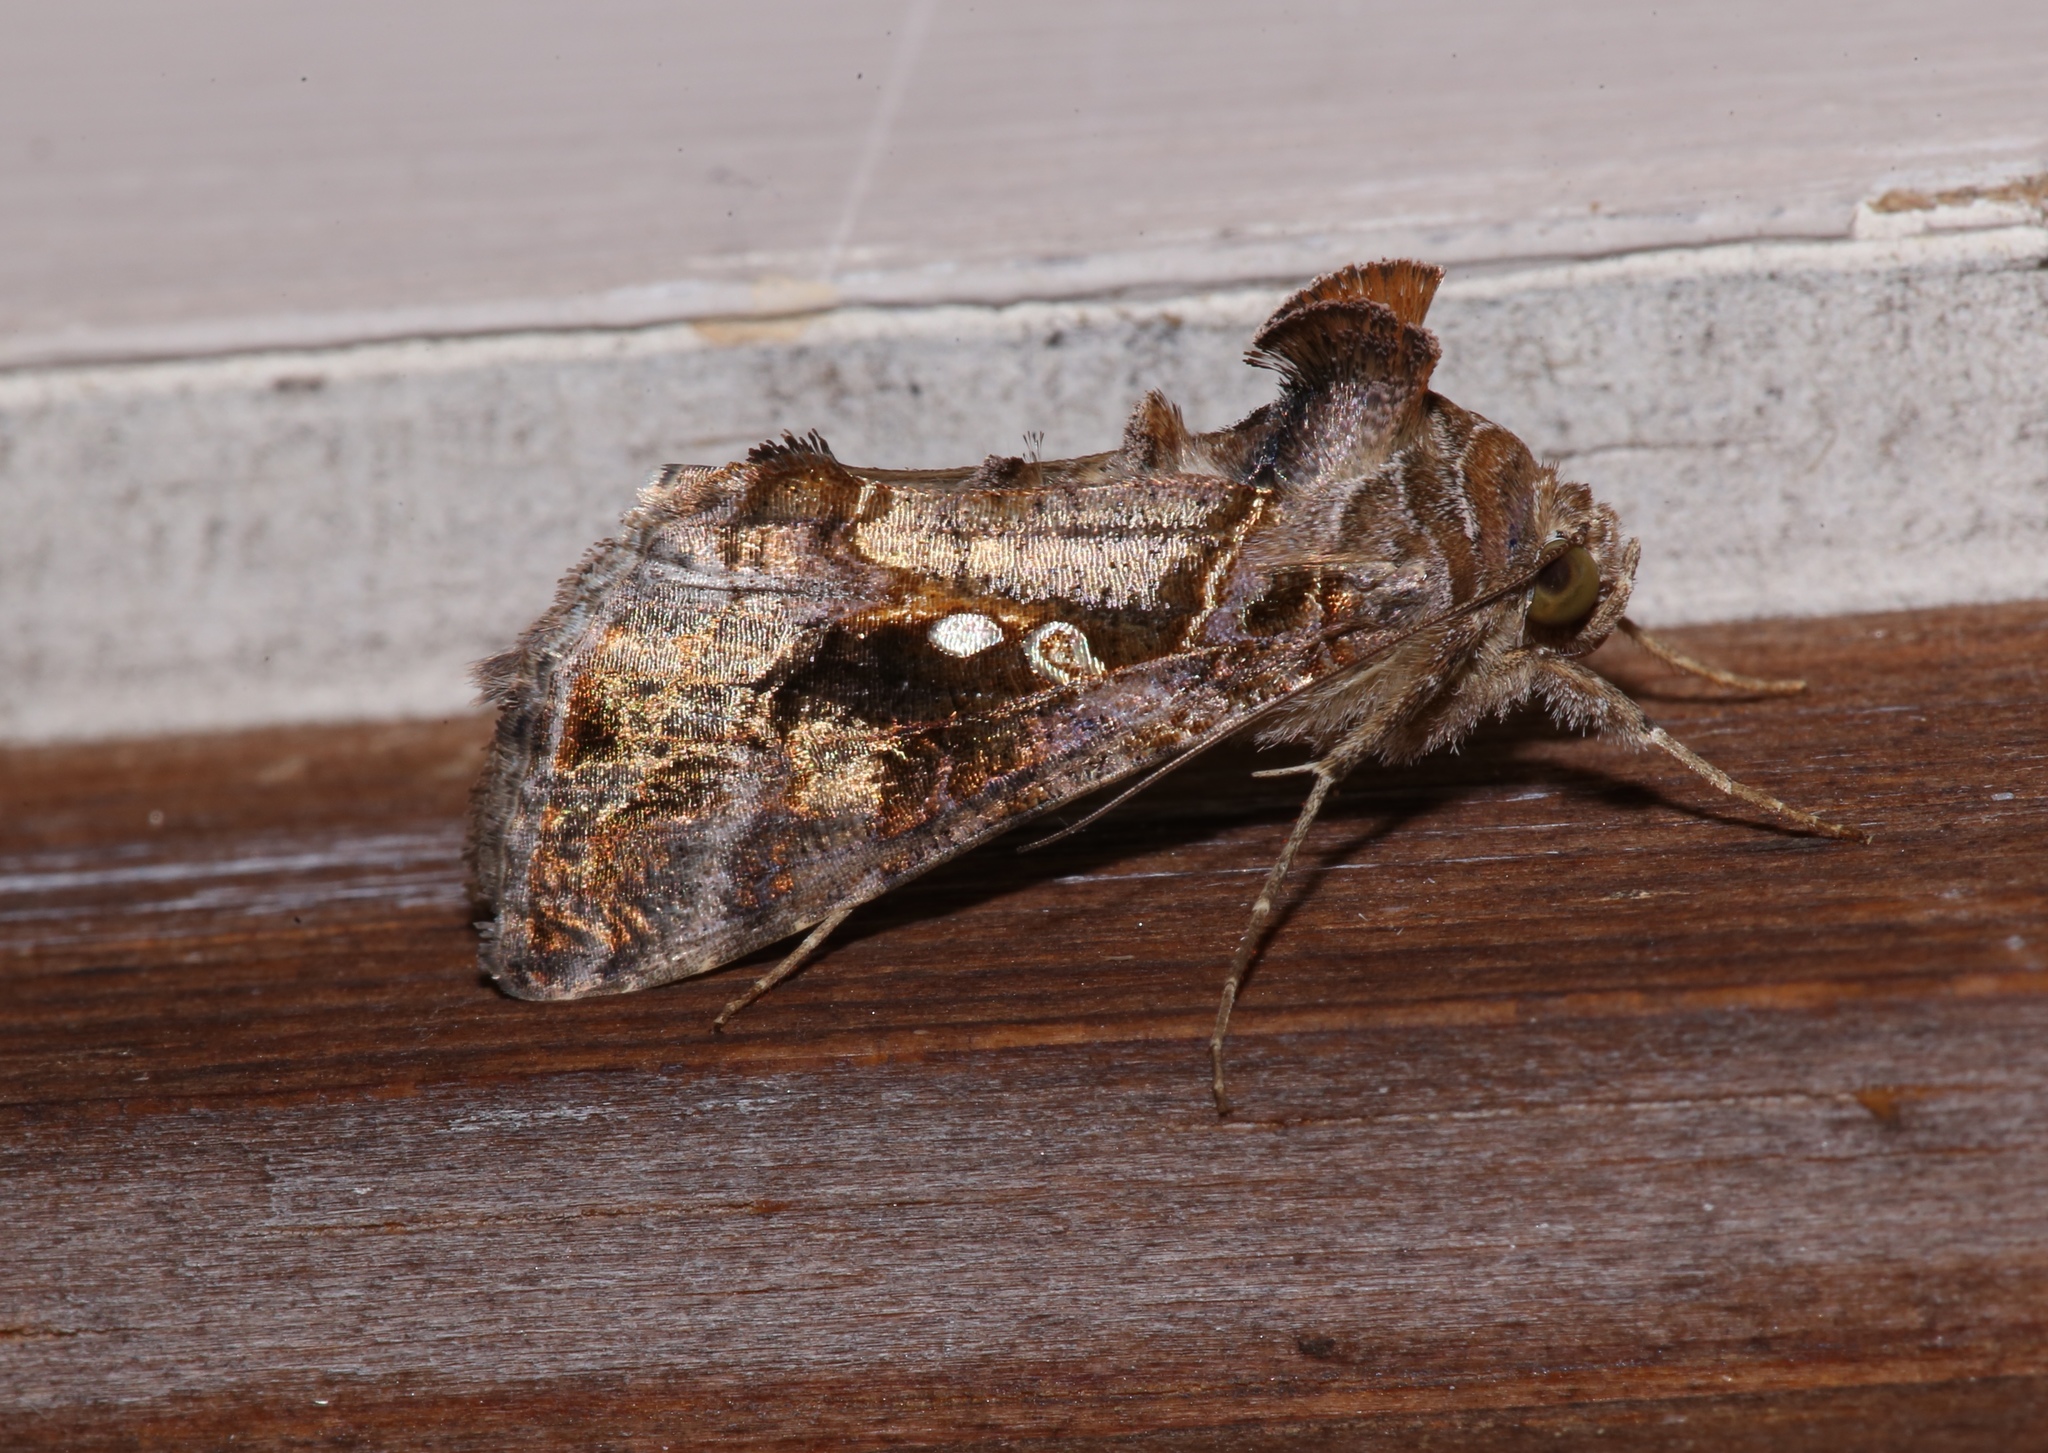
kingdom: Animalia
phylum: Arthropoda
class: Insecta
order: Lepidoptera
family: Noctuidae
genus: Chrysodeixis
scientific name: Chrysodeixis includens
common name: Cutworm moth
